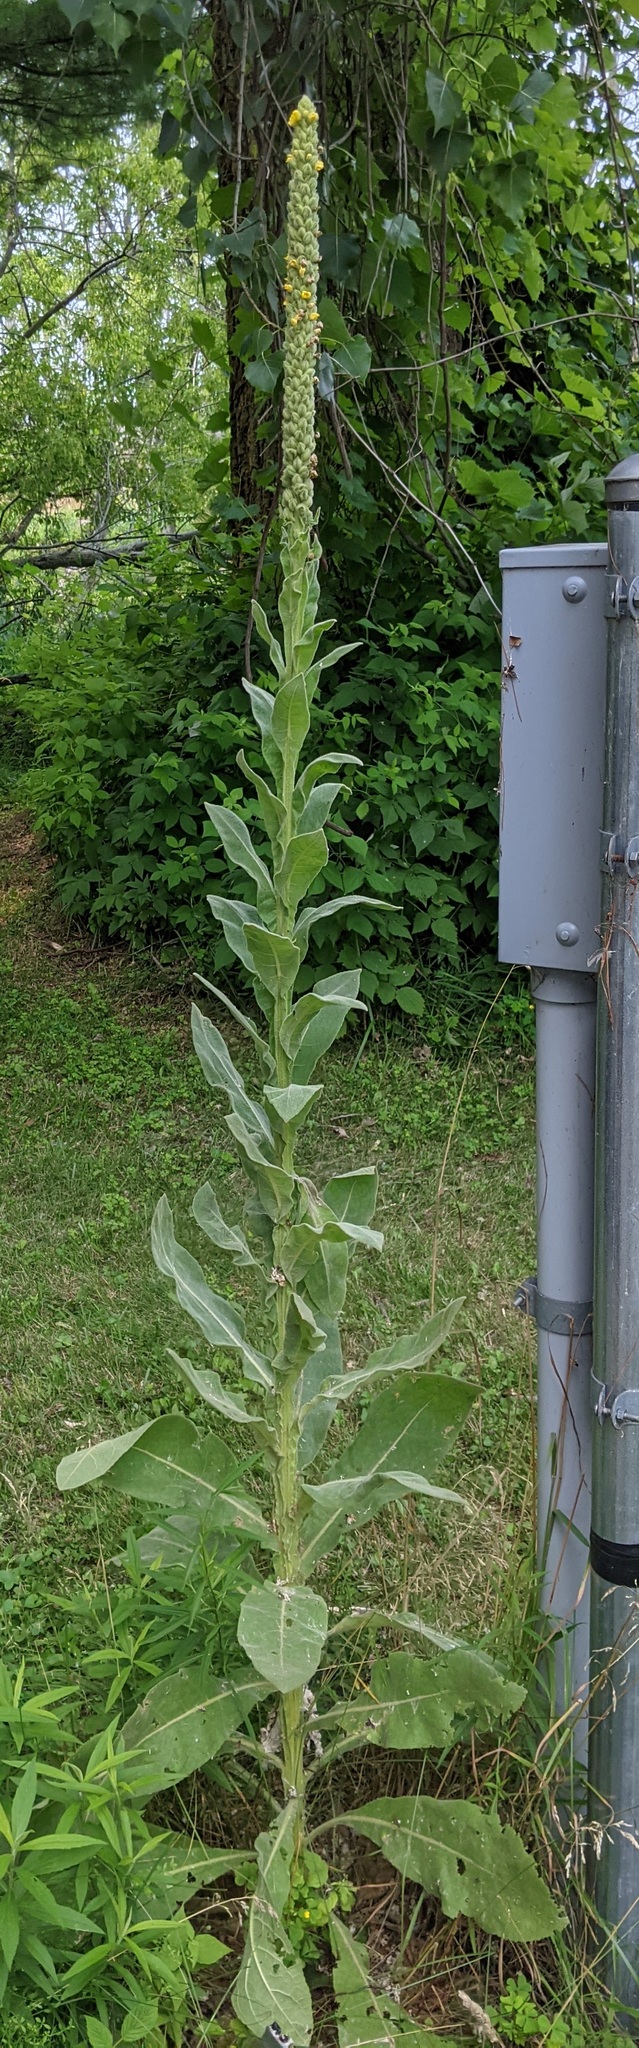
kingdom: Plantae
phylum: Tracheophyta
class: Magnoliopsida
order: Lamiales
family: Scrophulariaceae
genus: Verbascum
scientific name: Verbascum thapsus
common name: Common mullein
